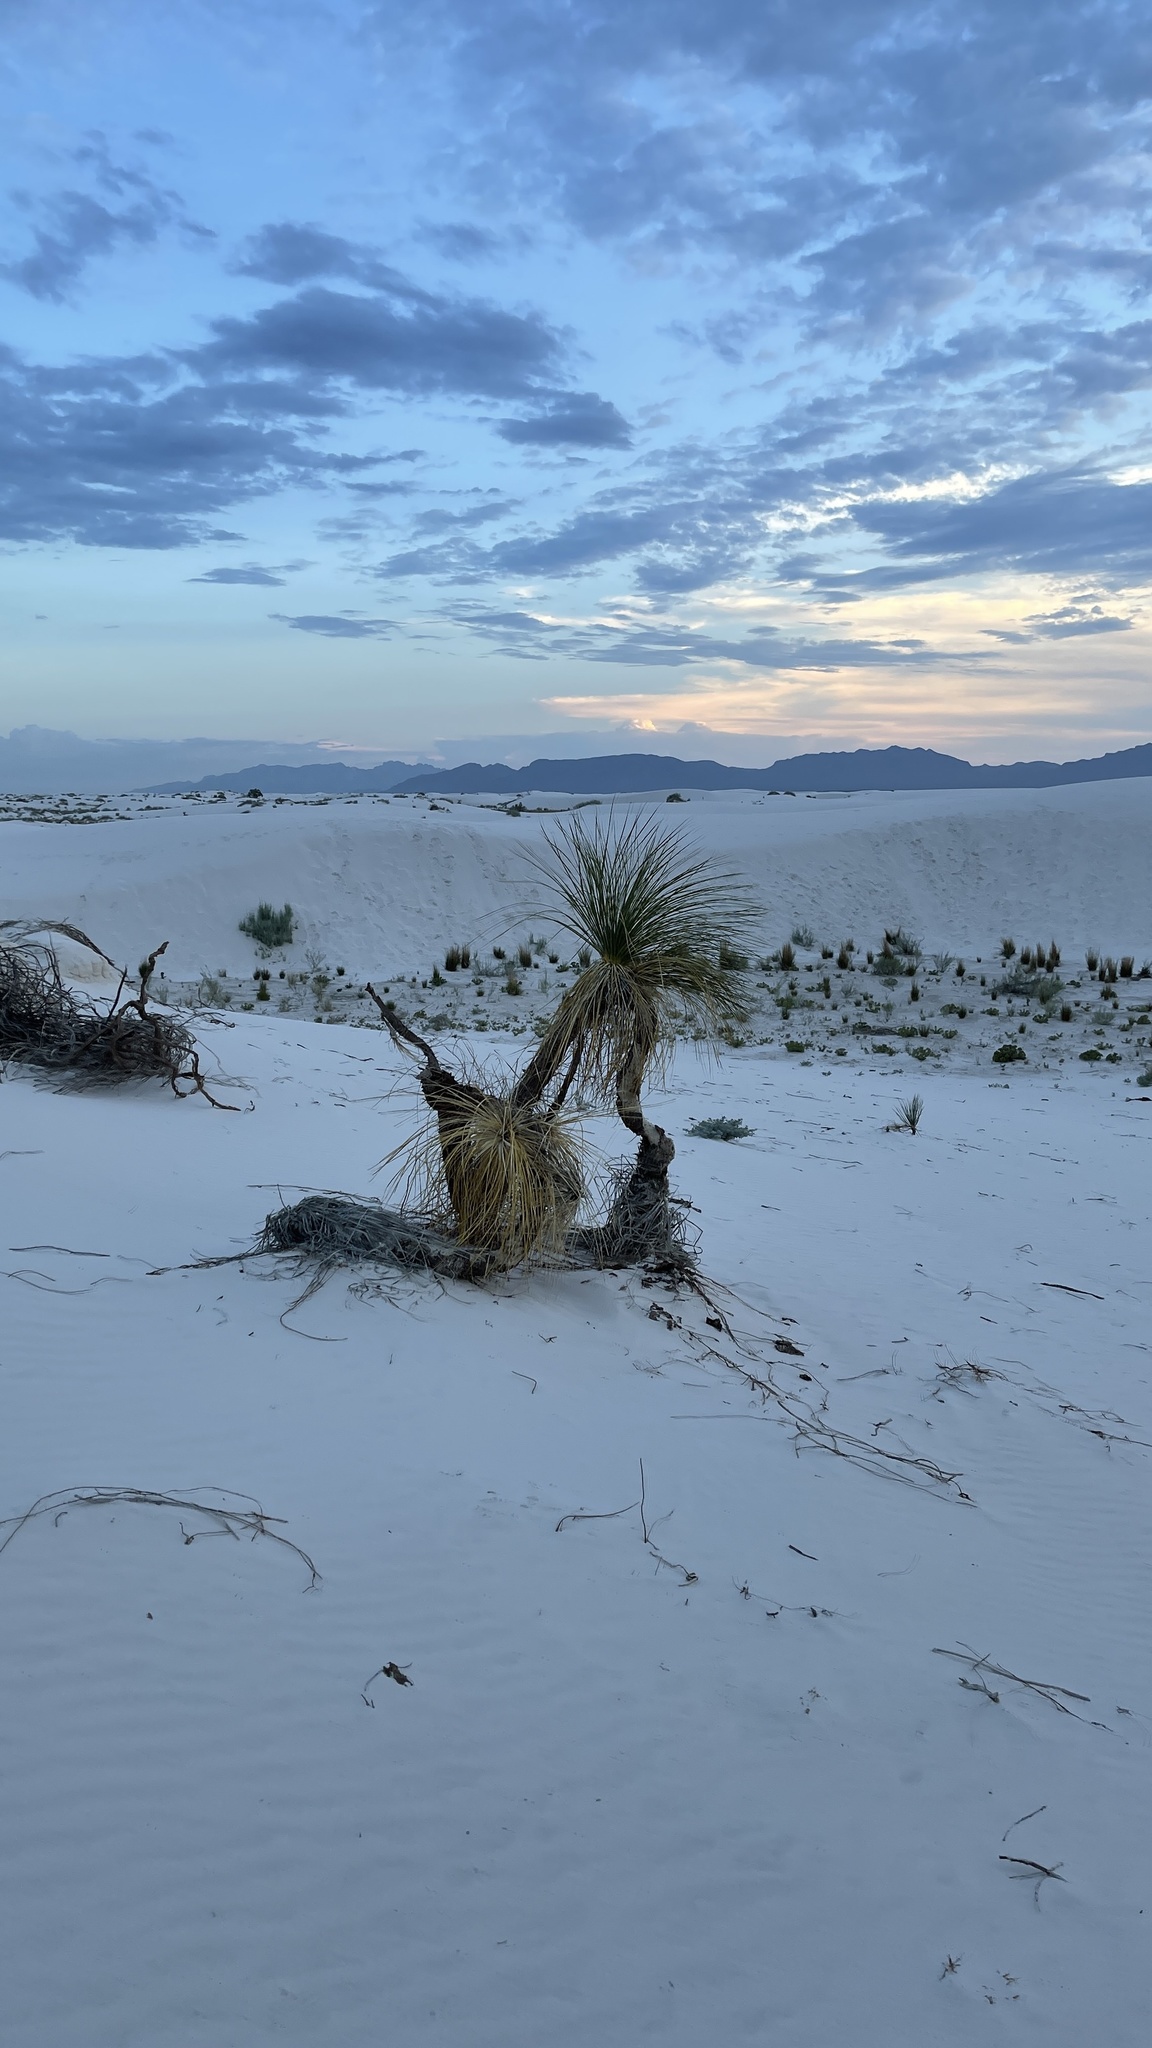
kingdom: Plantae
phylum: Tracheophyta
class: Liliopsida
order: Asparagales
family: Asparagaceae
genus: Yucca
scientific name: Yucca elata
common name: Palmella
